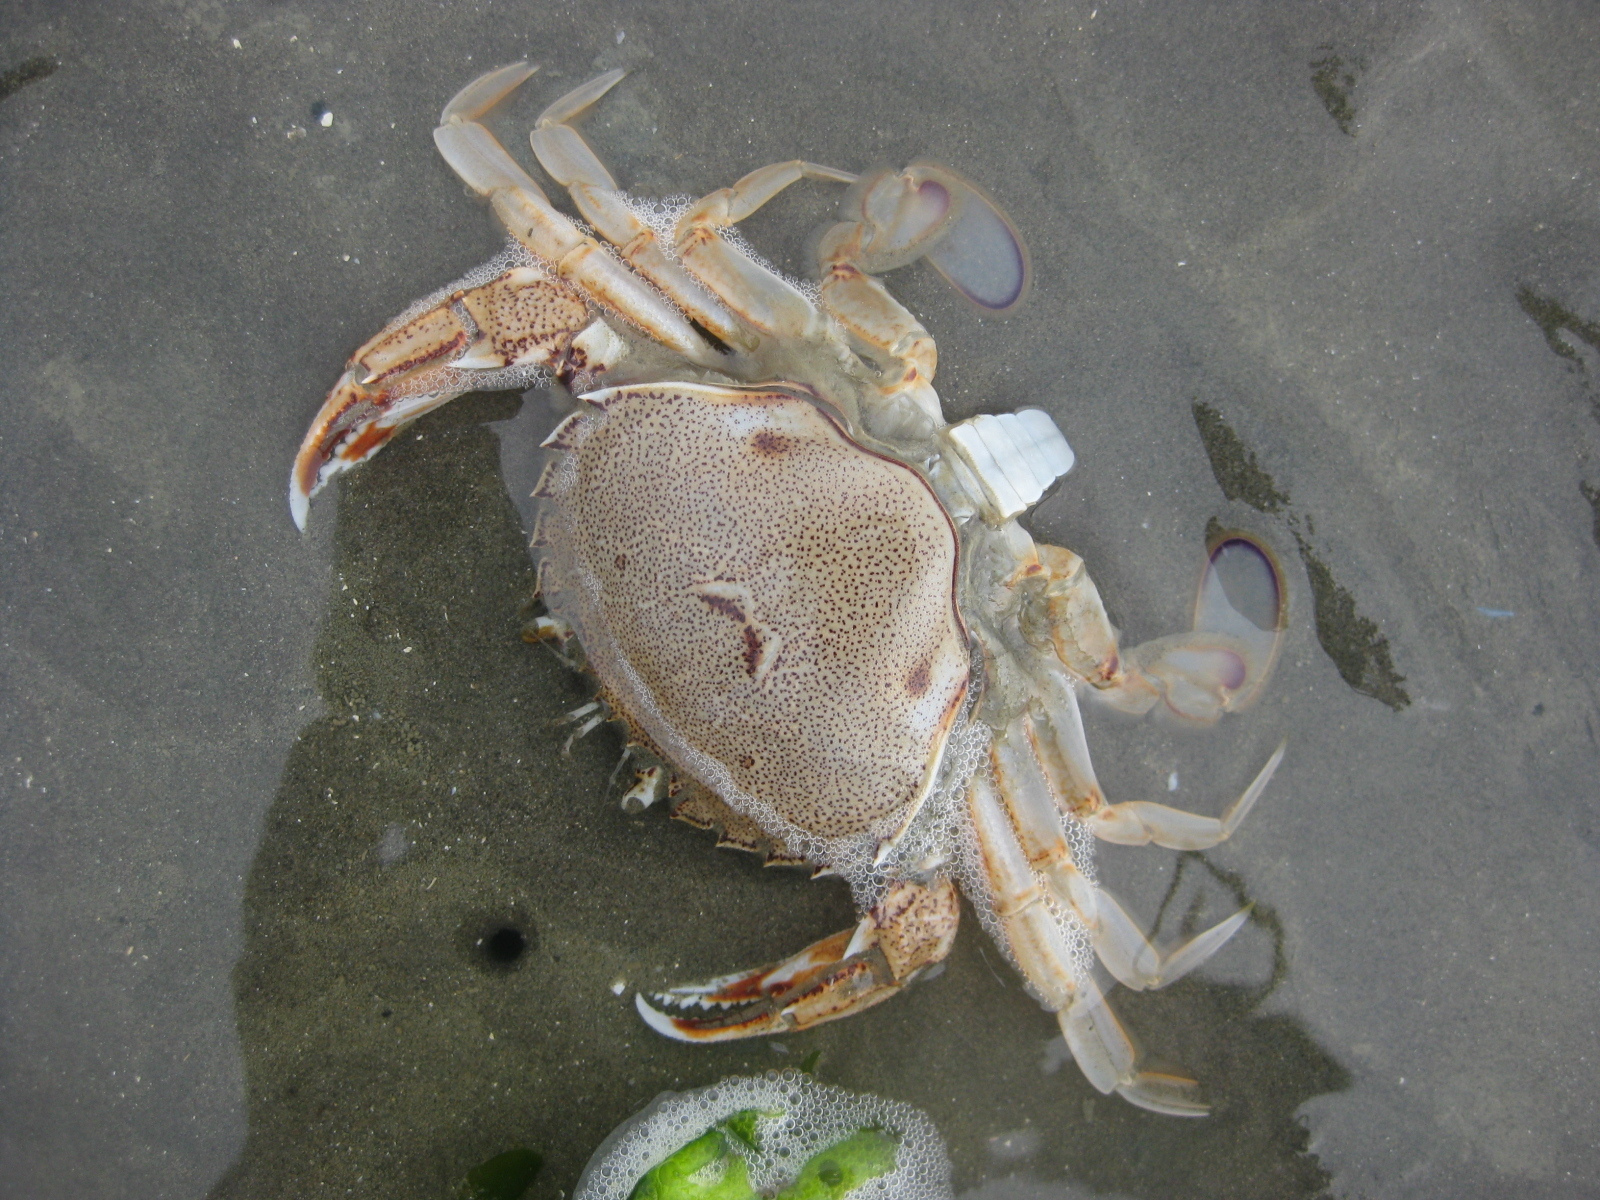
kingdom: Animalia
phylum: Arthropoda
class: Malacostraca
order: Decapoda
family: Ovalipidae
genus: Ovalipes
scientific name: Ovalipes catharus
